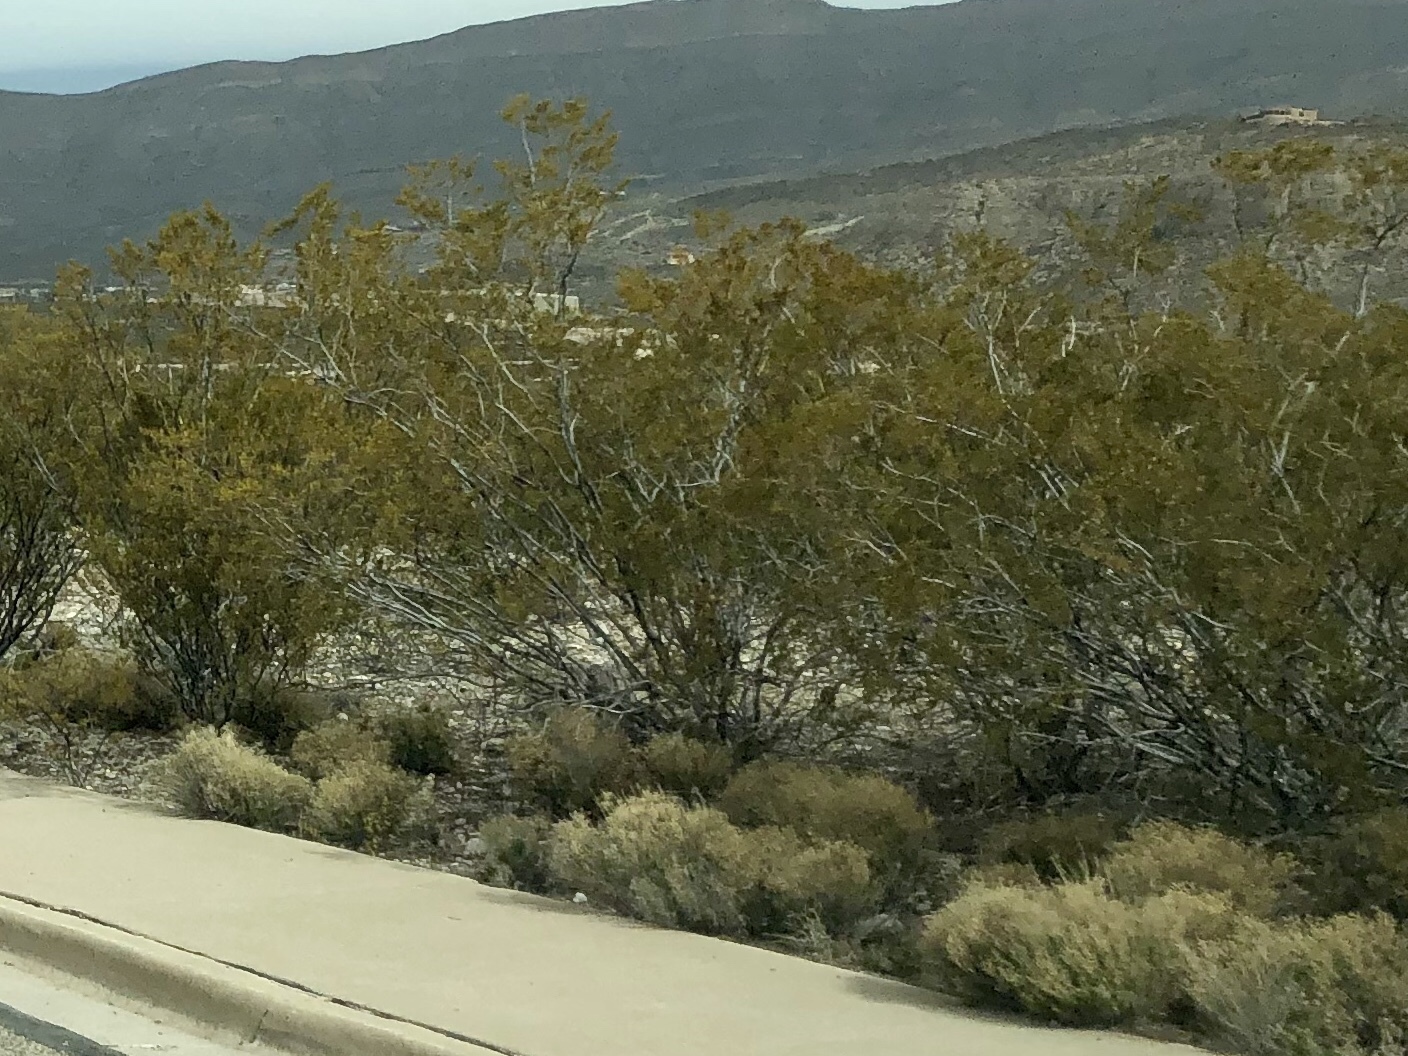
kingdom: Plantae
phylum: Tracheophyta
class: Magnoliopsida
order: Zygophyllales
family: Zygophyllaceae
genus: Larrea
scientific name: Larrea tridentata
